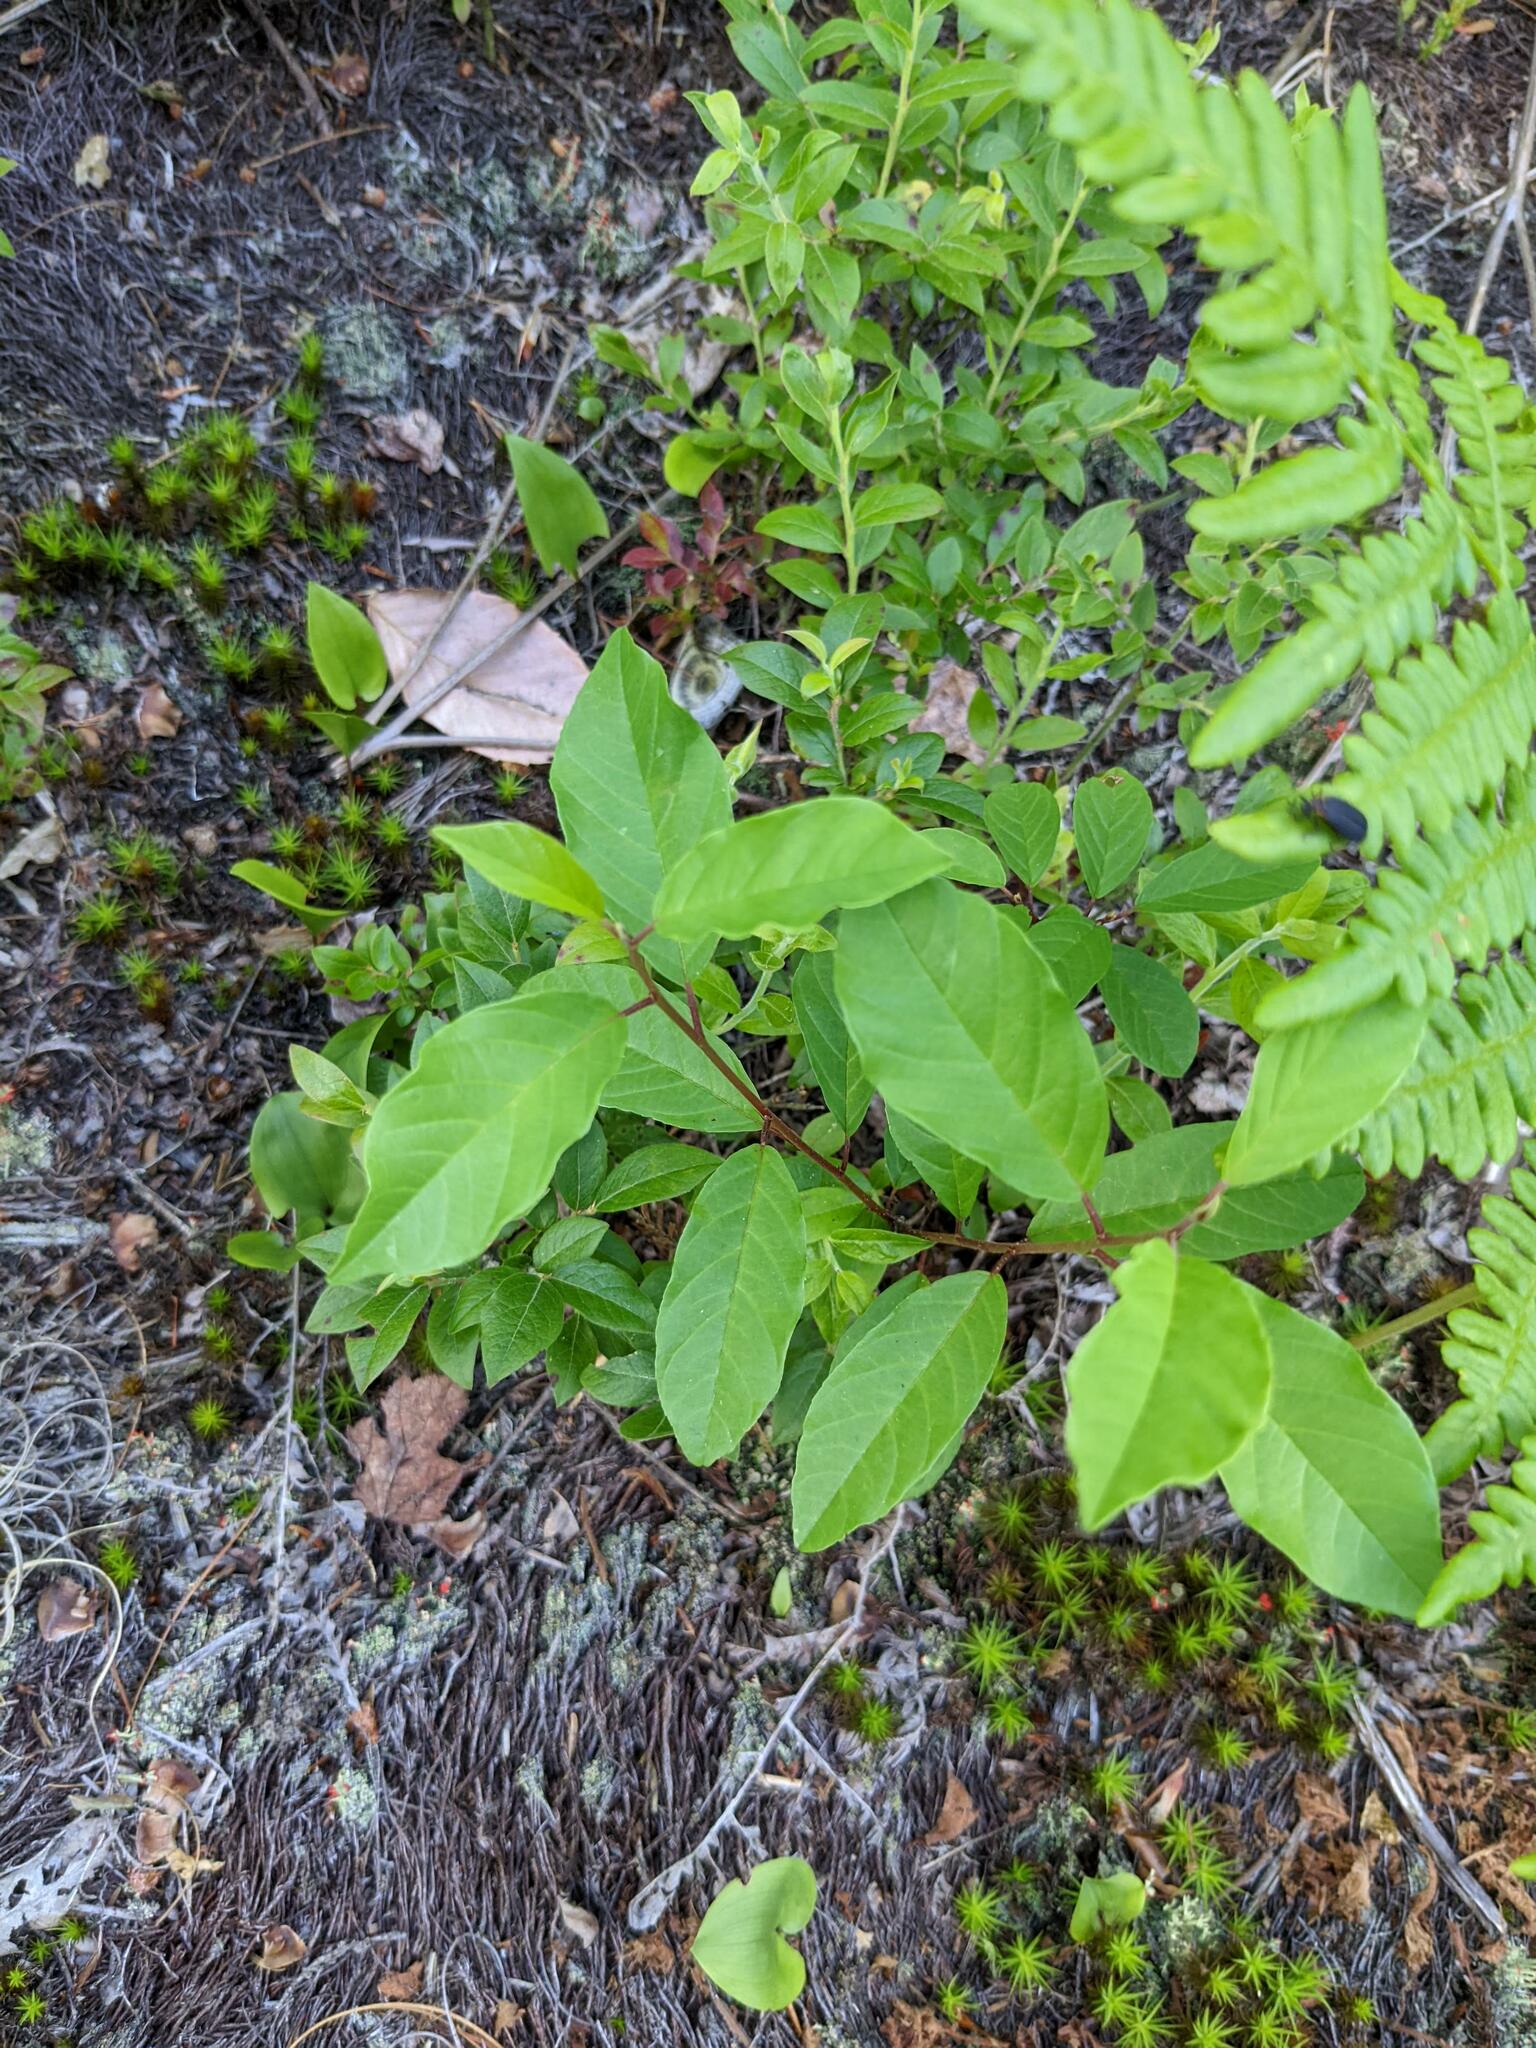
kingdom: Plantae
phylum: Tracheophyta
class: Magnoliopsida
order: Rosales
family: Rhamnaceae
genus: Frangula
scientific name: Frangula alnus
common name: Alder buckthorn
